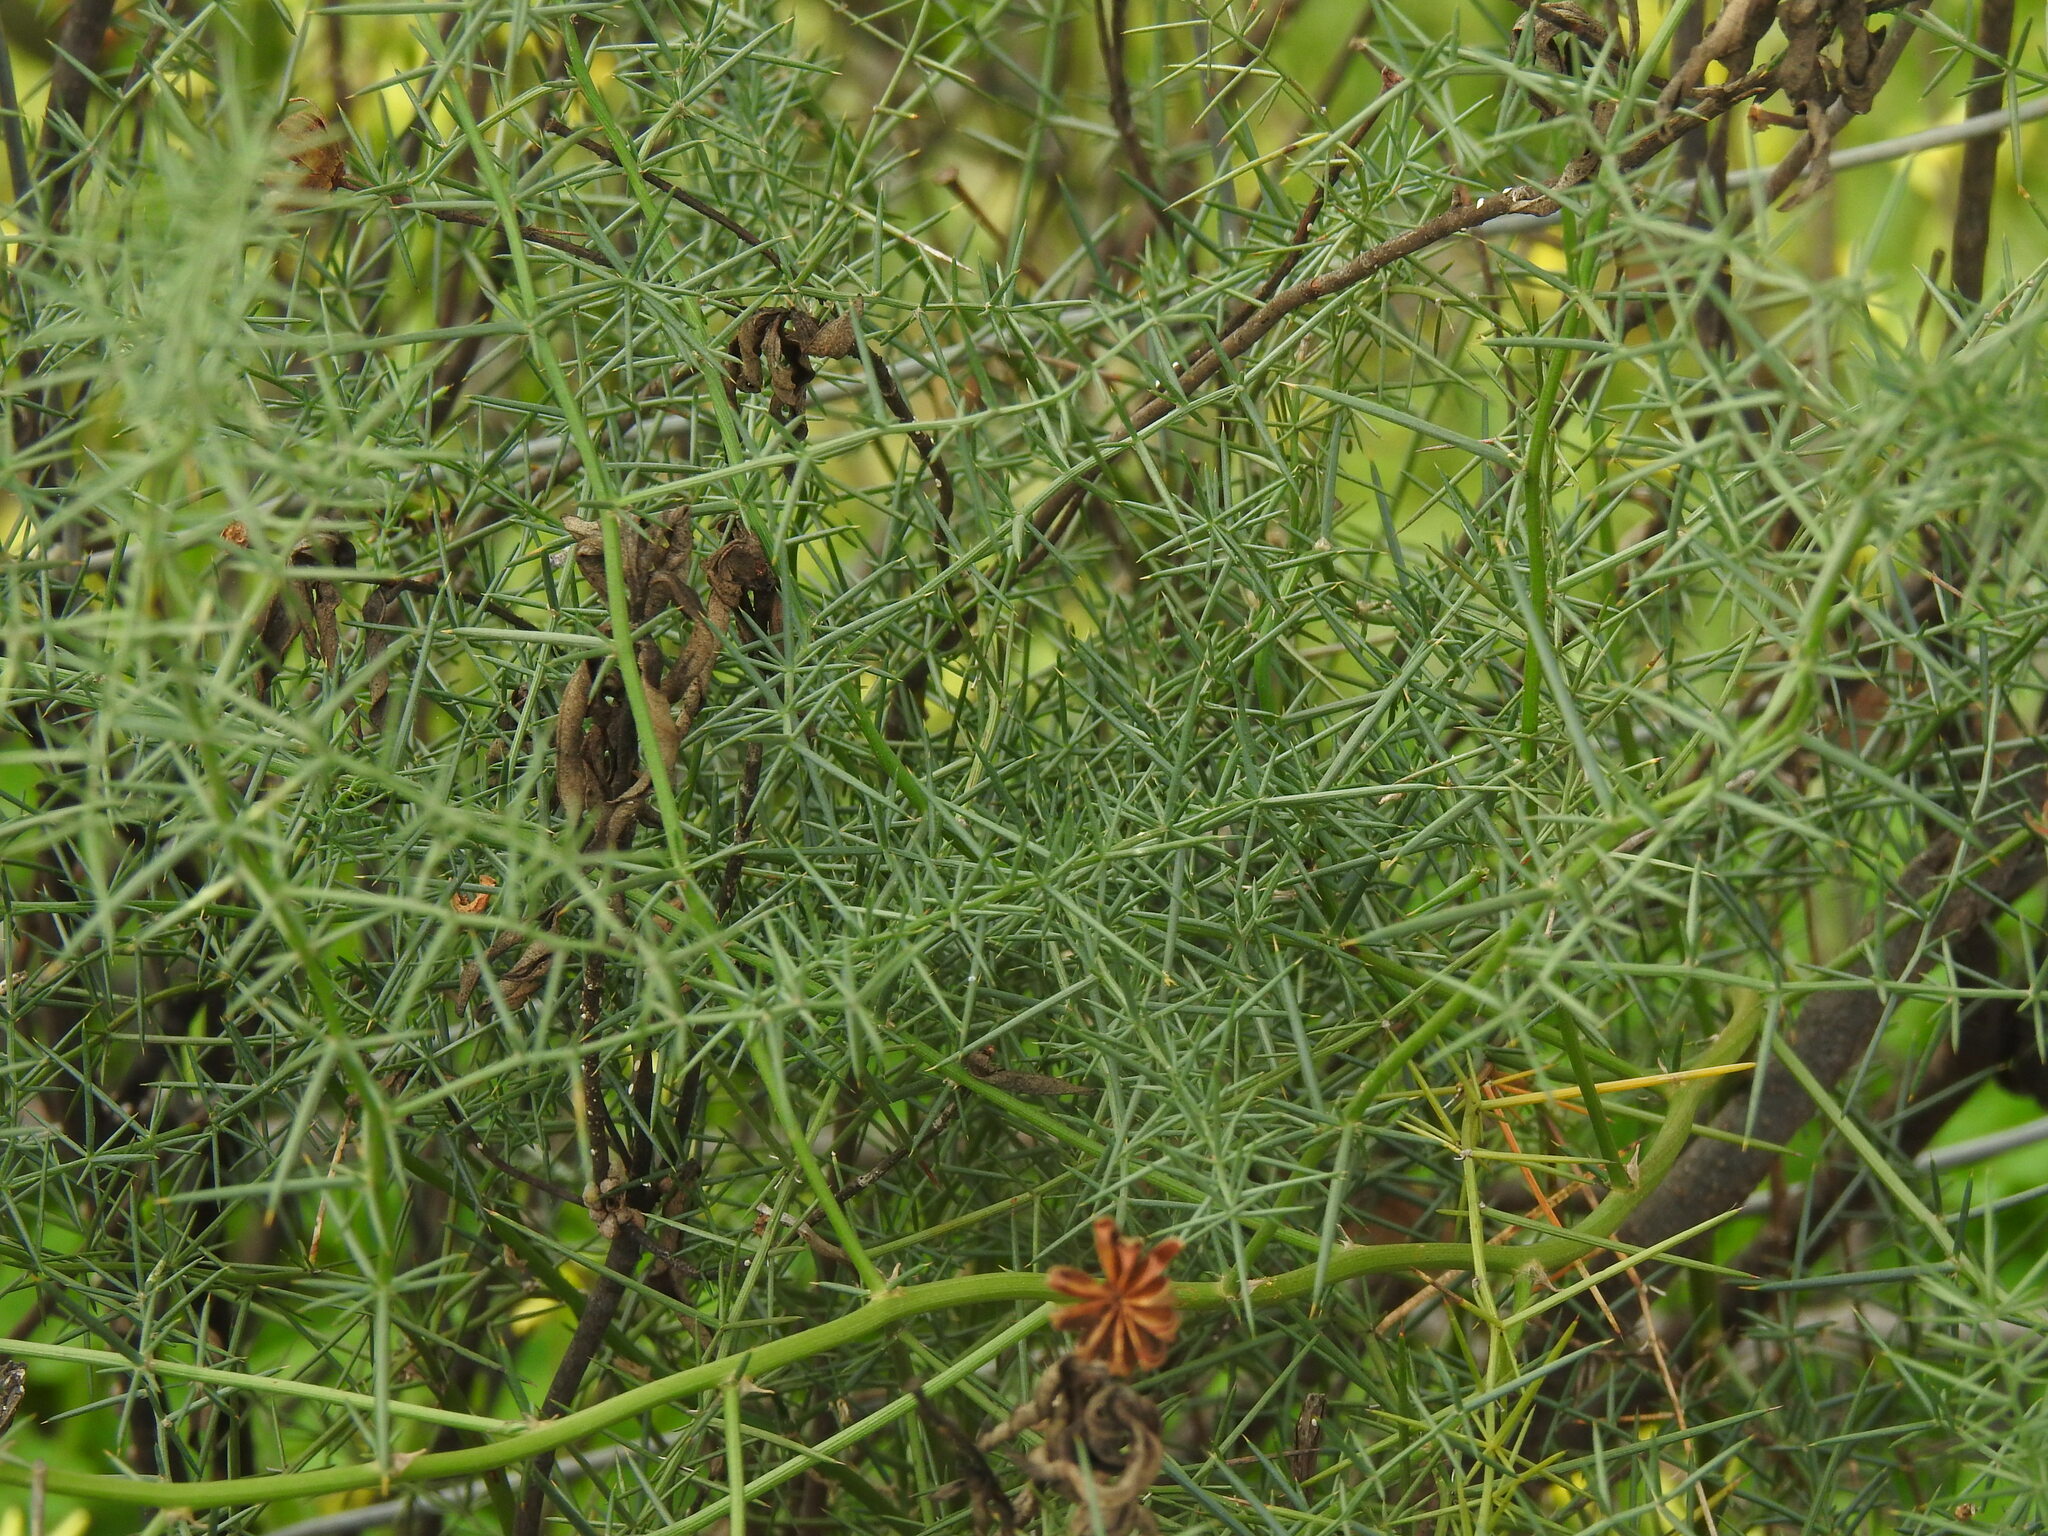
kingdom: Plantae
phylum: Tracheophyta
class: Liliopsida
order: Asparagales
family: Asparagaceae
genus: Asparagus
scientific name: Asparagus aphyllus
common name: Mediterranean asparagus
